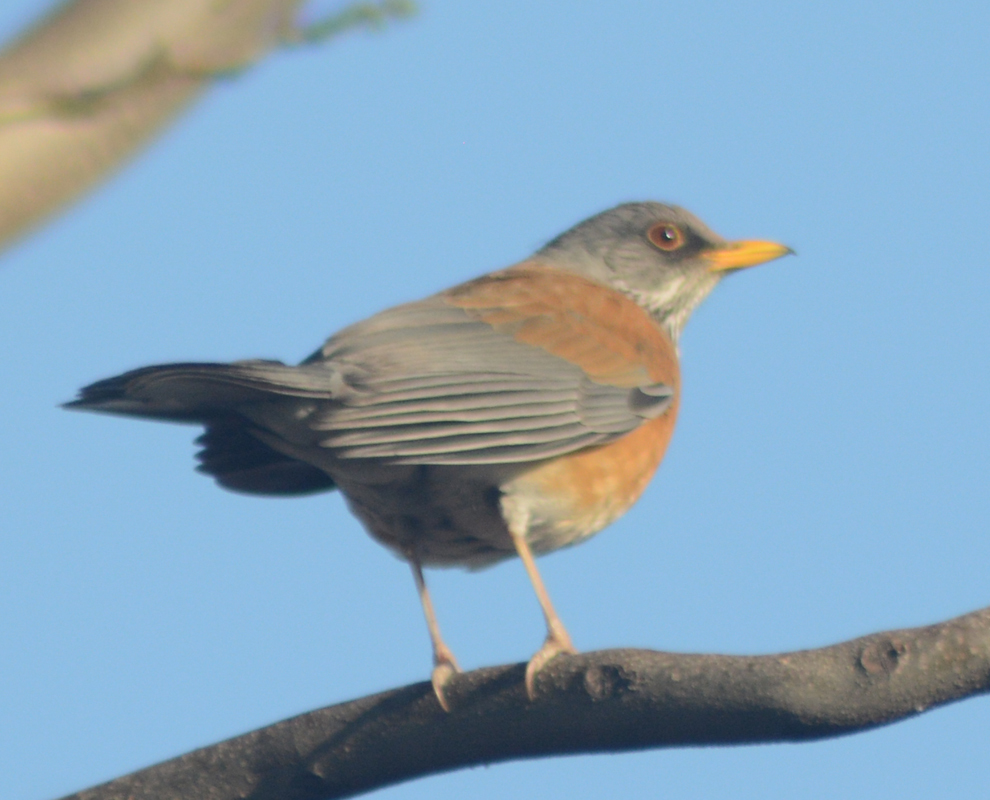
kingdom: Animalia
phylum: Chordata
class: Aves
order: Passeriformes
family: Turdidae
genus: Turdus
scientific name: Turdus rufopalliatus
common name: Rufous-backed robin
